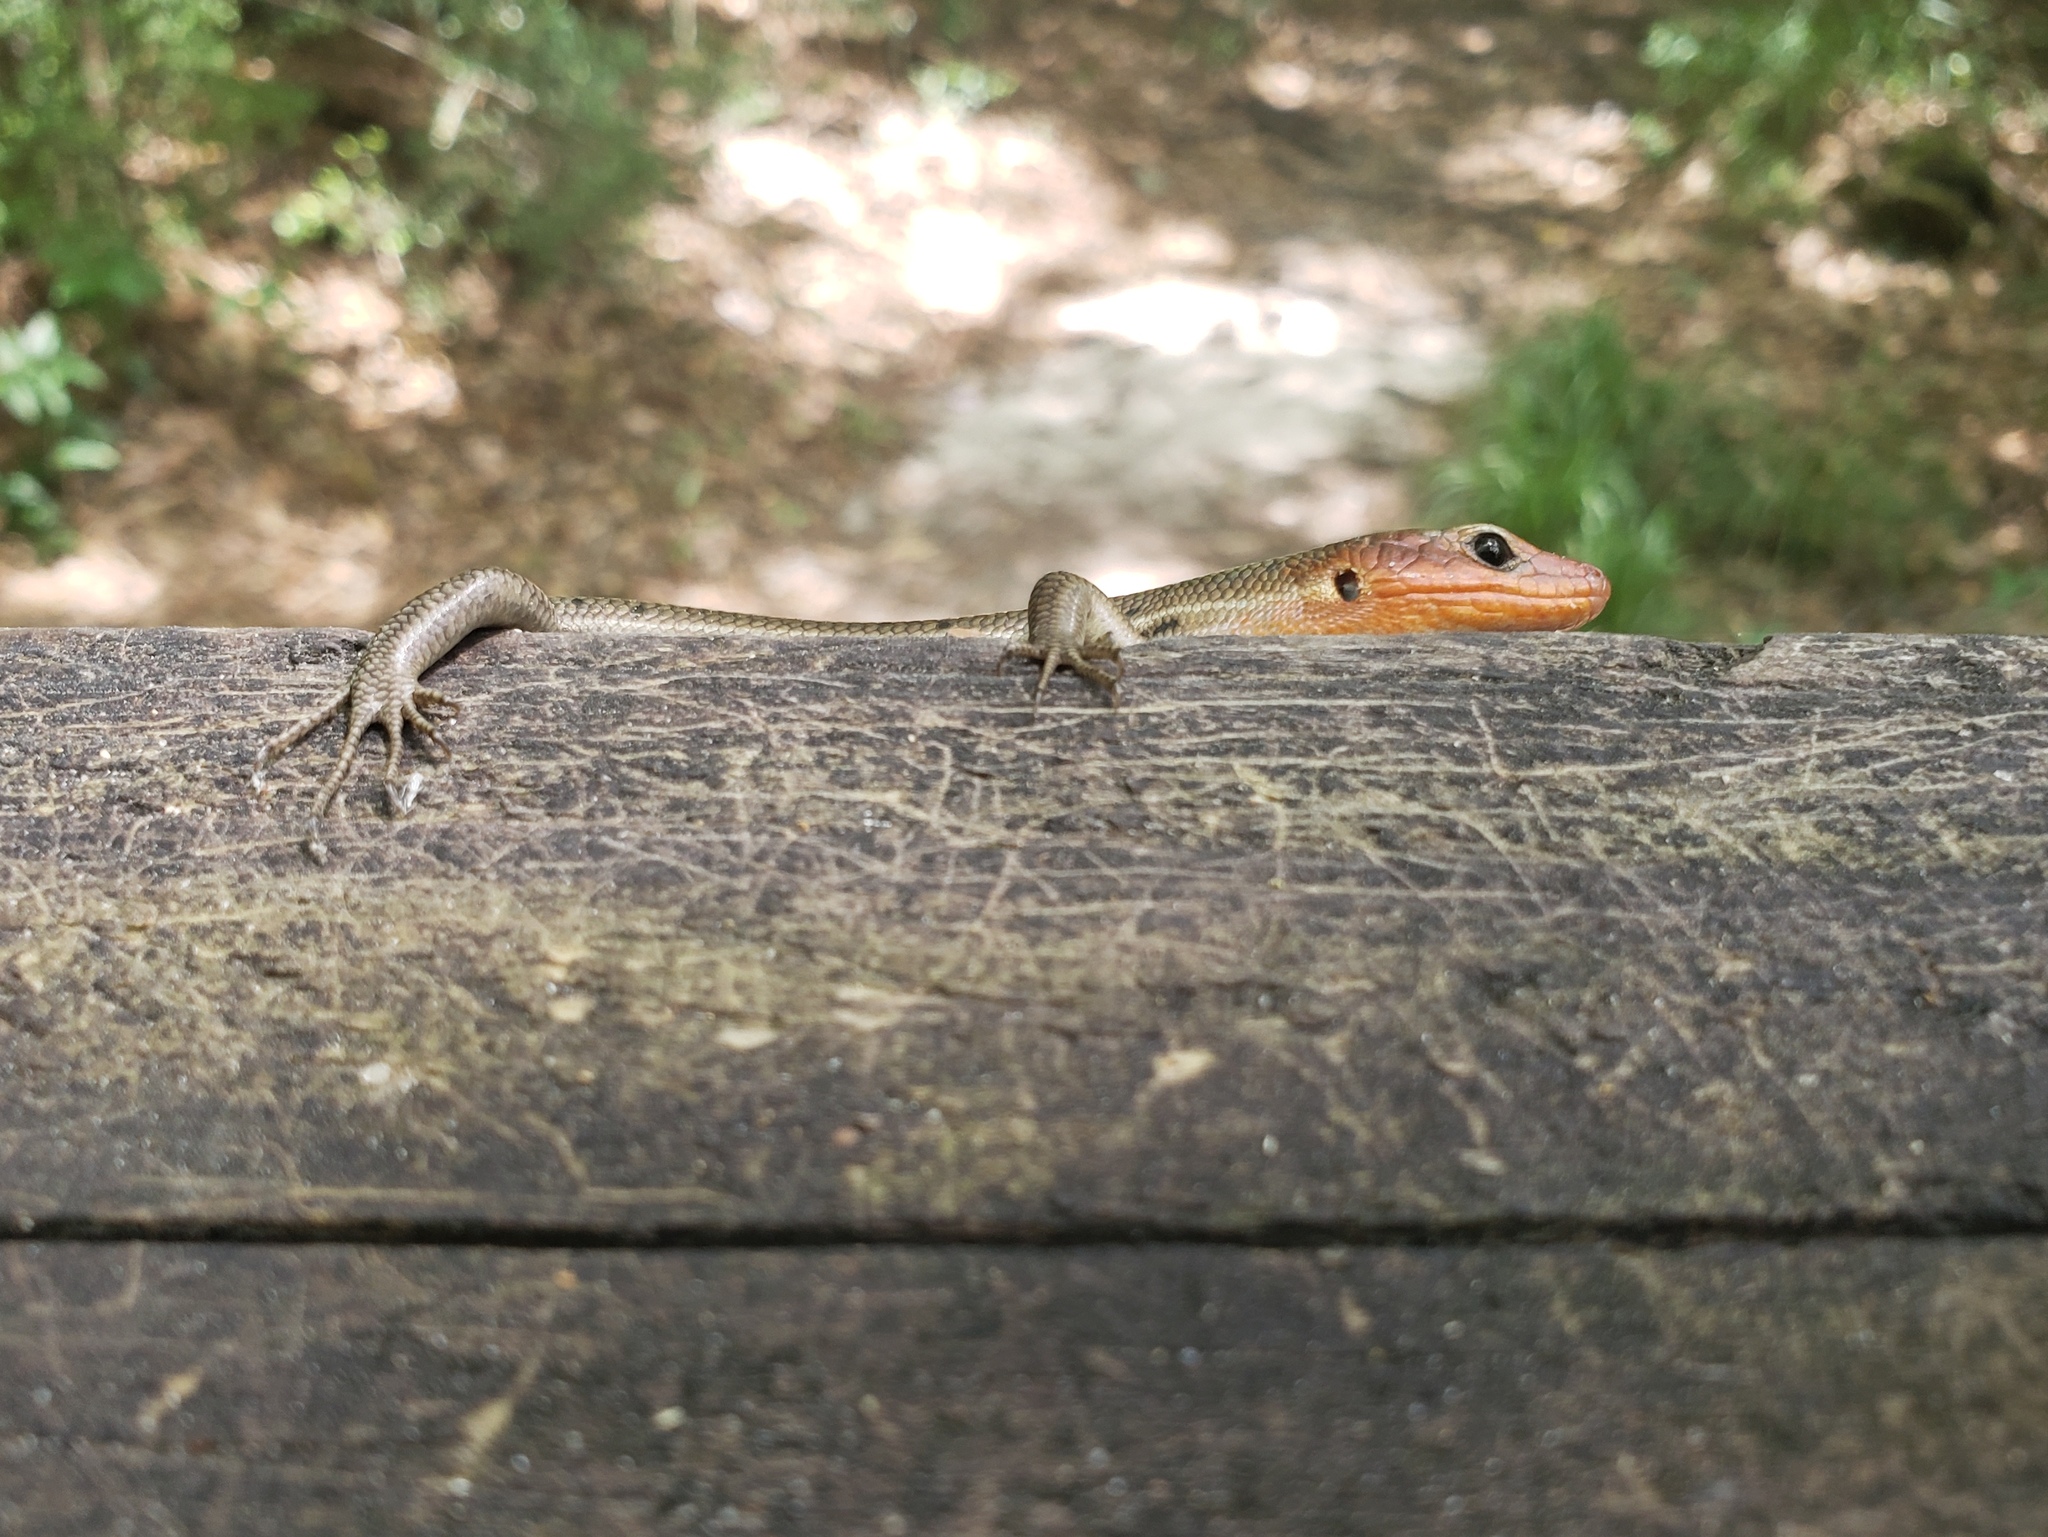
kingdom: Animalia
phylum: Chordata
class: Squamata
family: Scincidae
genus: Plestiodon
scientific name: Plestiodon laticeps
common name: Broadhead skink
